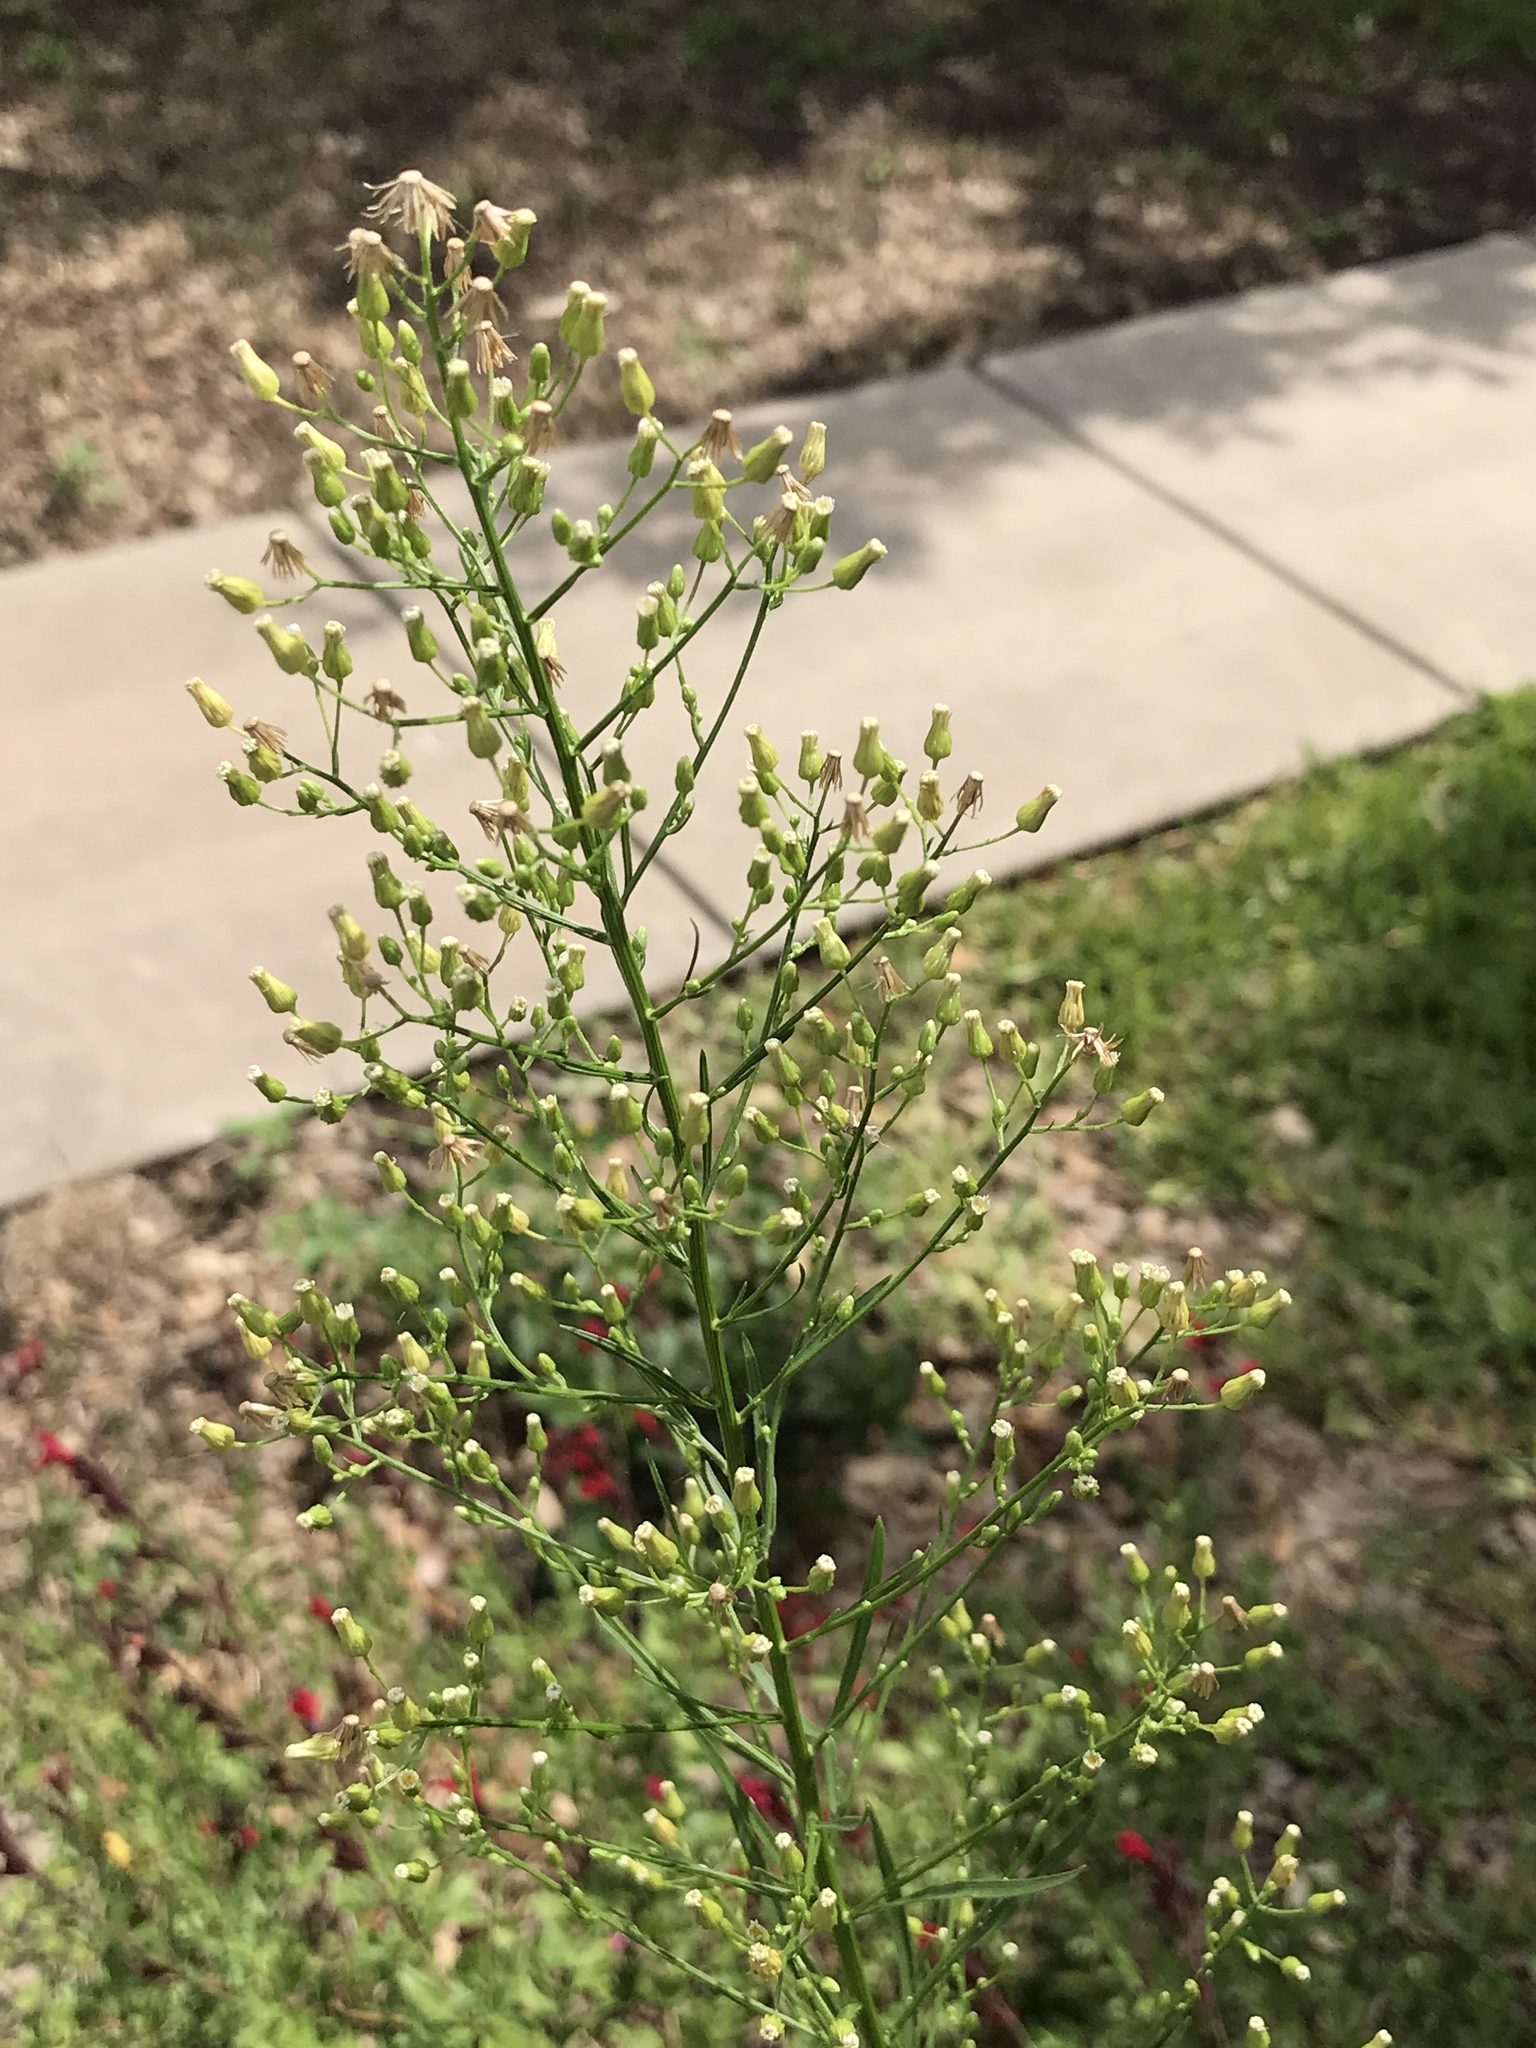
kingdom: Plantae
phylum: Tracheophyta
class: Magnoliopsida
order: Asterales
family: Asteraceae
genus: Erigeron
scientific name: Erigeron canadensis
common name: Canadian fleabane
